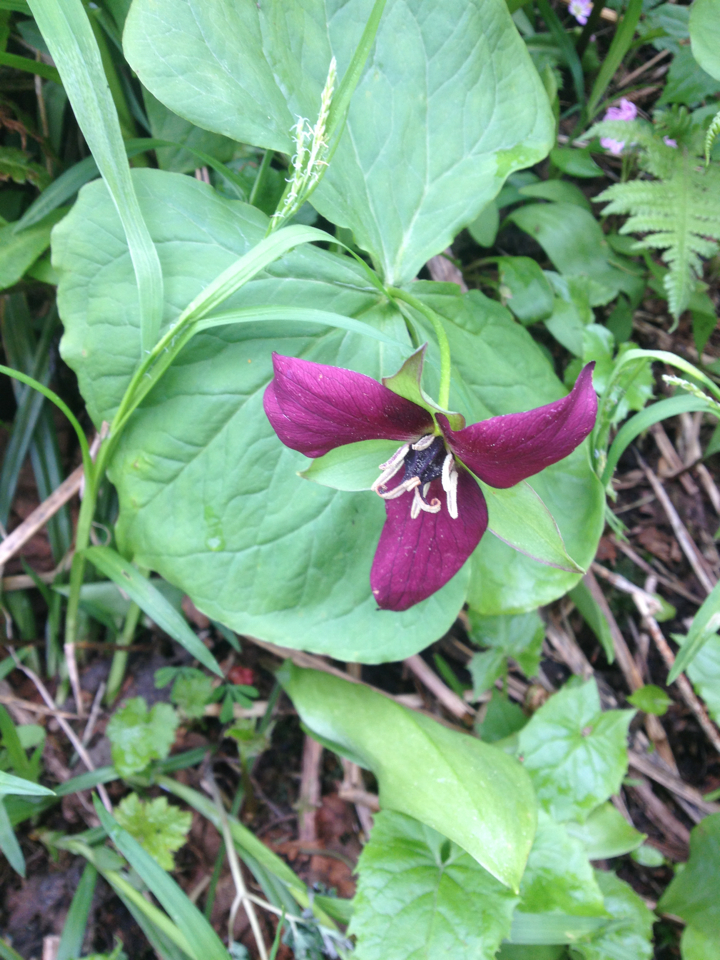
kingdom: Plantae
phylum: Tracheophyta
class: Liliopsida
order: Liliales
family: Melanthiaceae
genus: Trillium
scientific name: Trillium erectum
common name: Purple trillium
